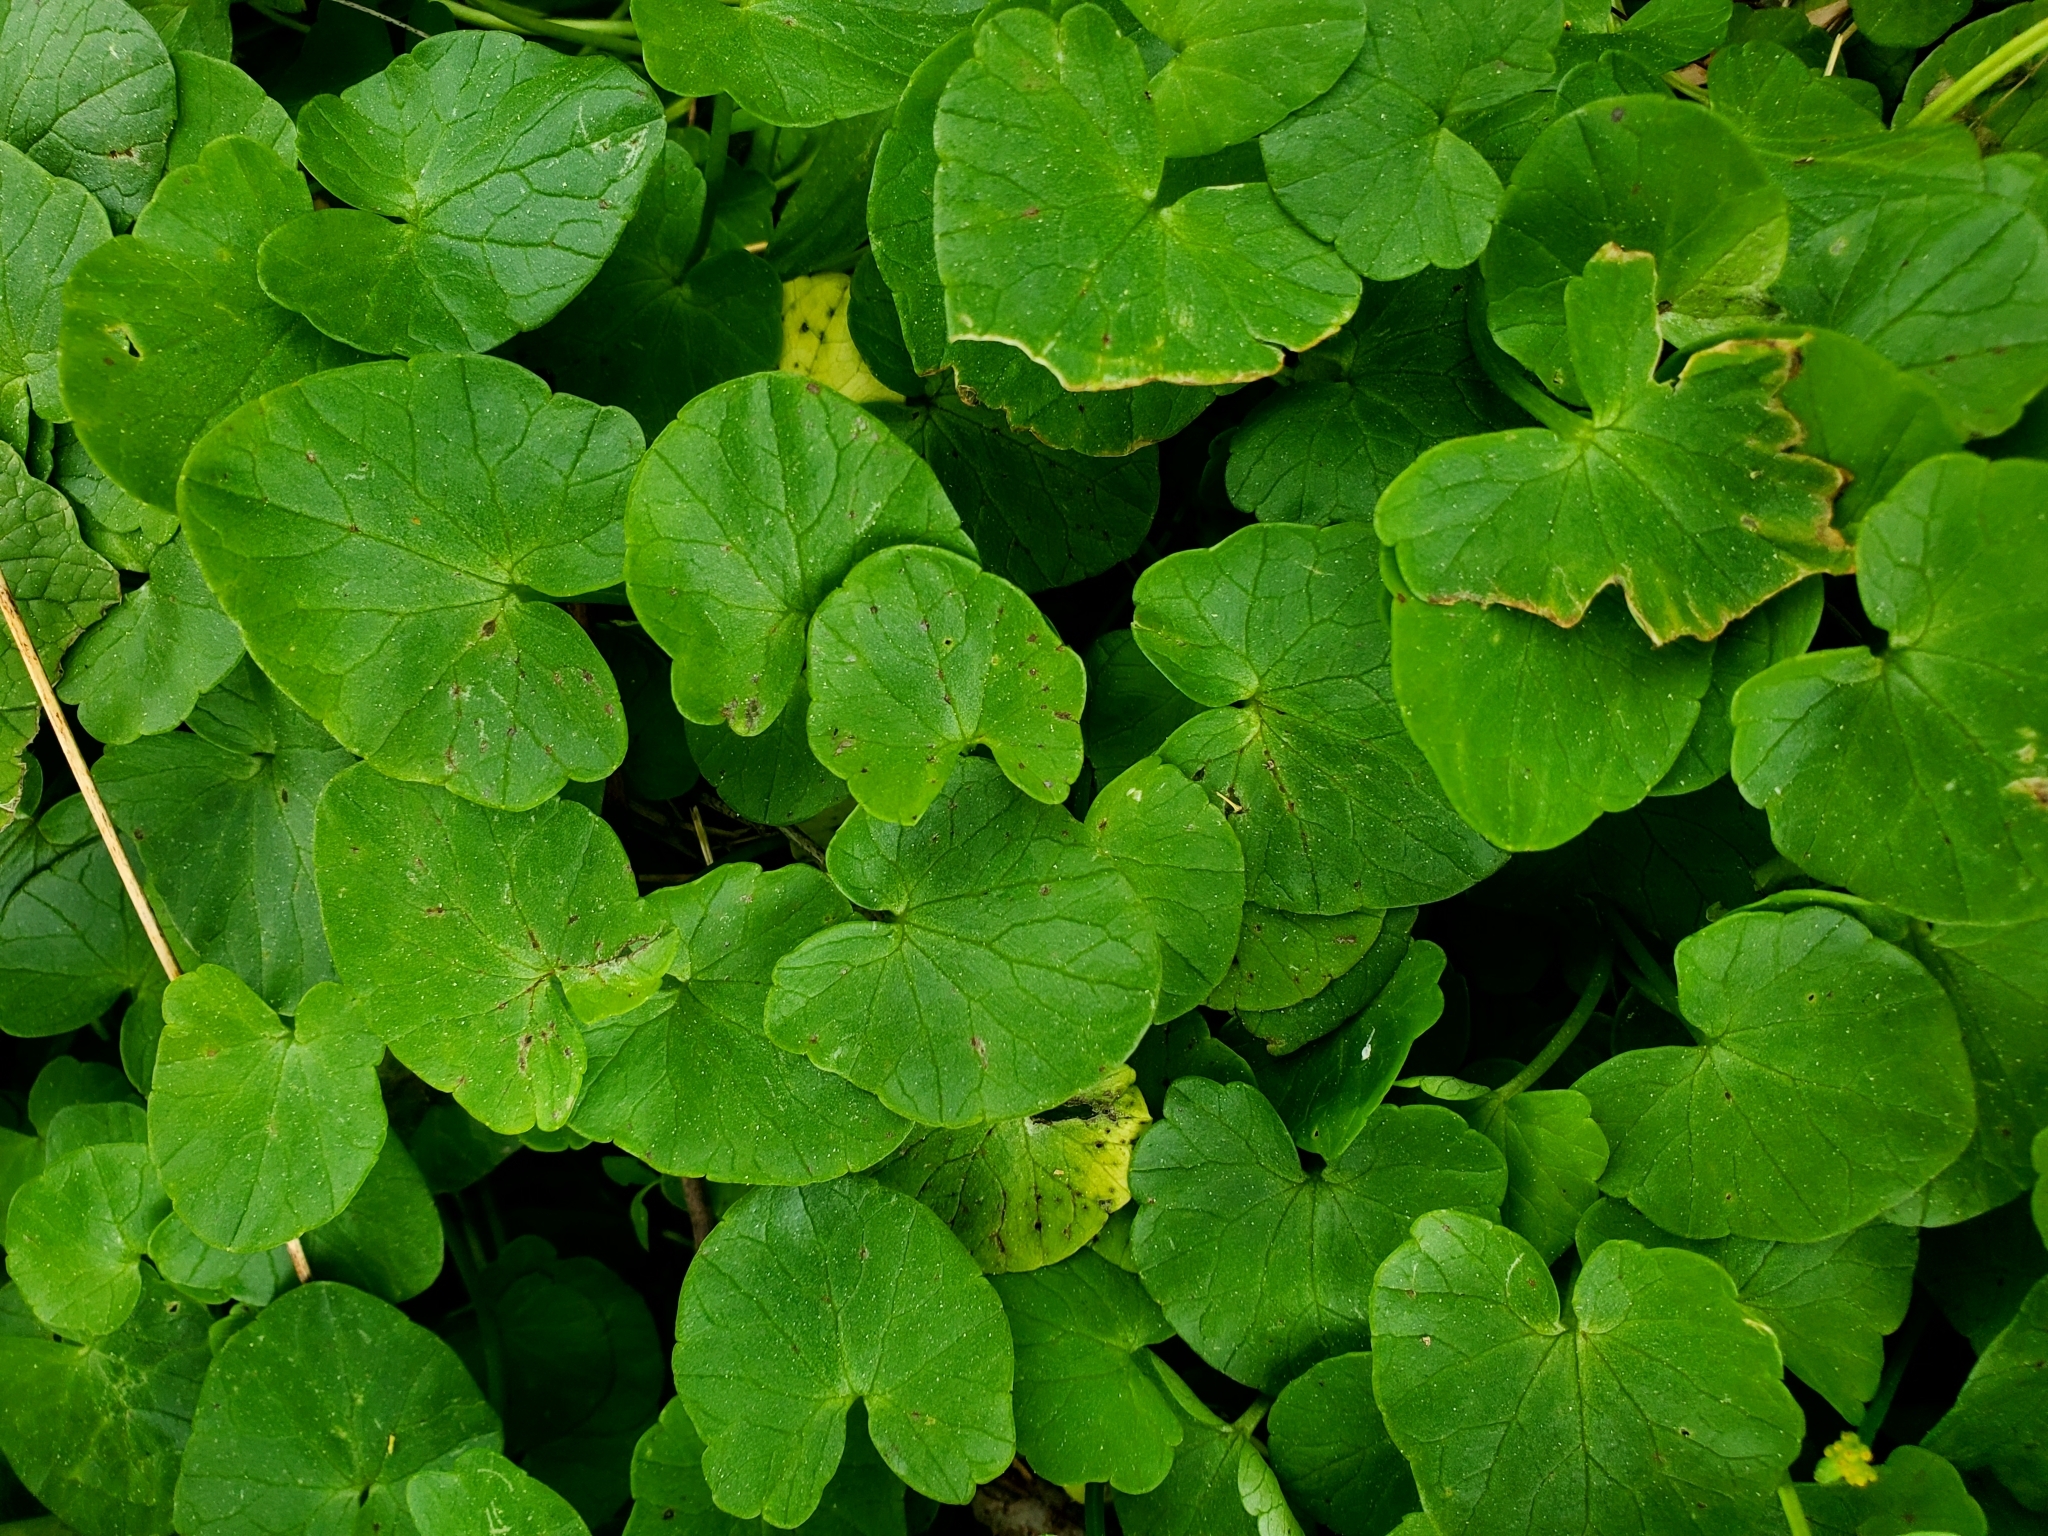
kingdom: Plantae
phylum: Tracheophyta
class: Magnoliopsida
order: Ranunculales
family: Ranunculaceae
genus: Ficaria
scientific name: Ficaria verna
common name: Lesser celandine
